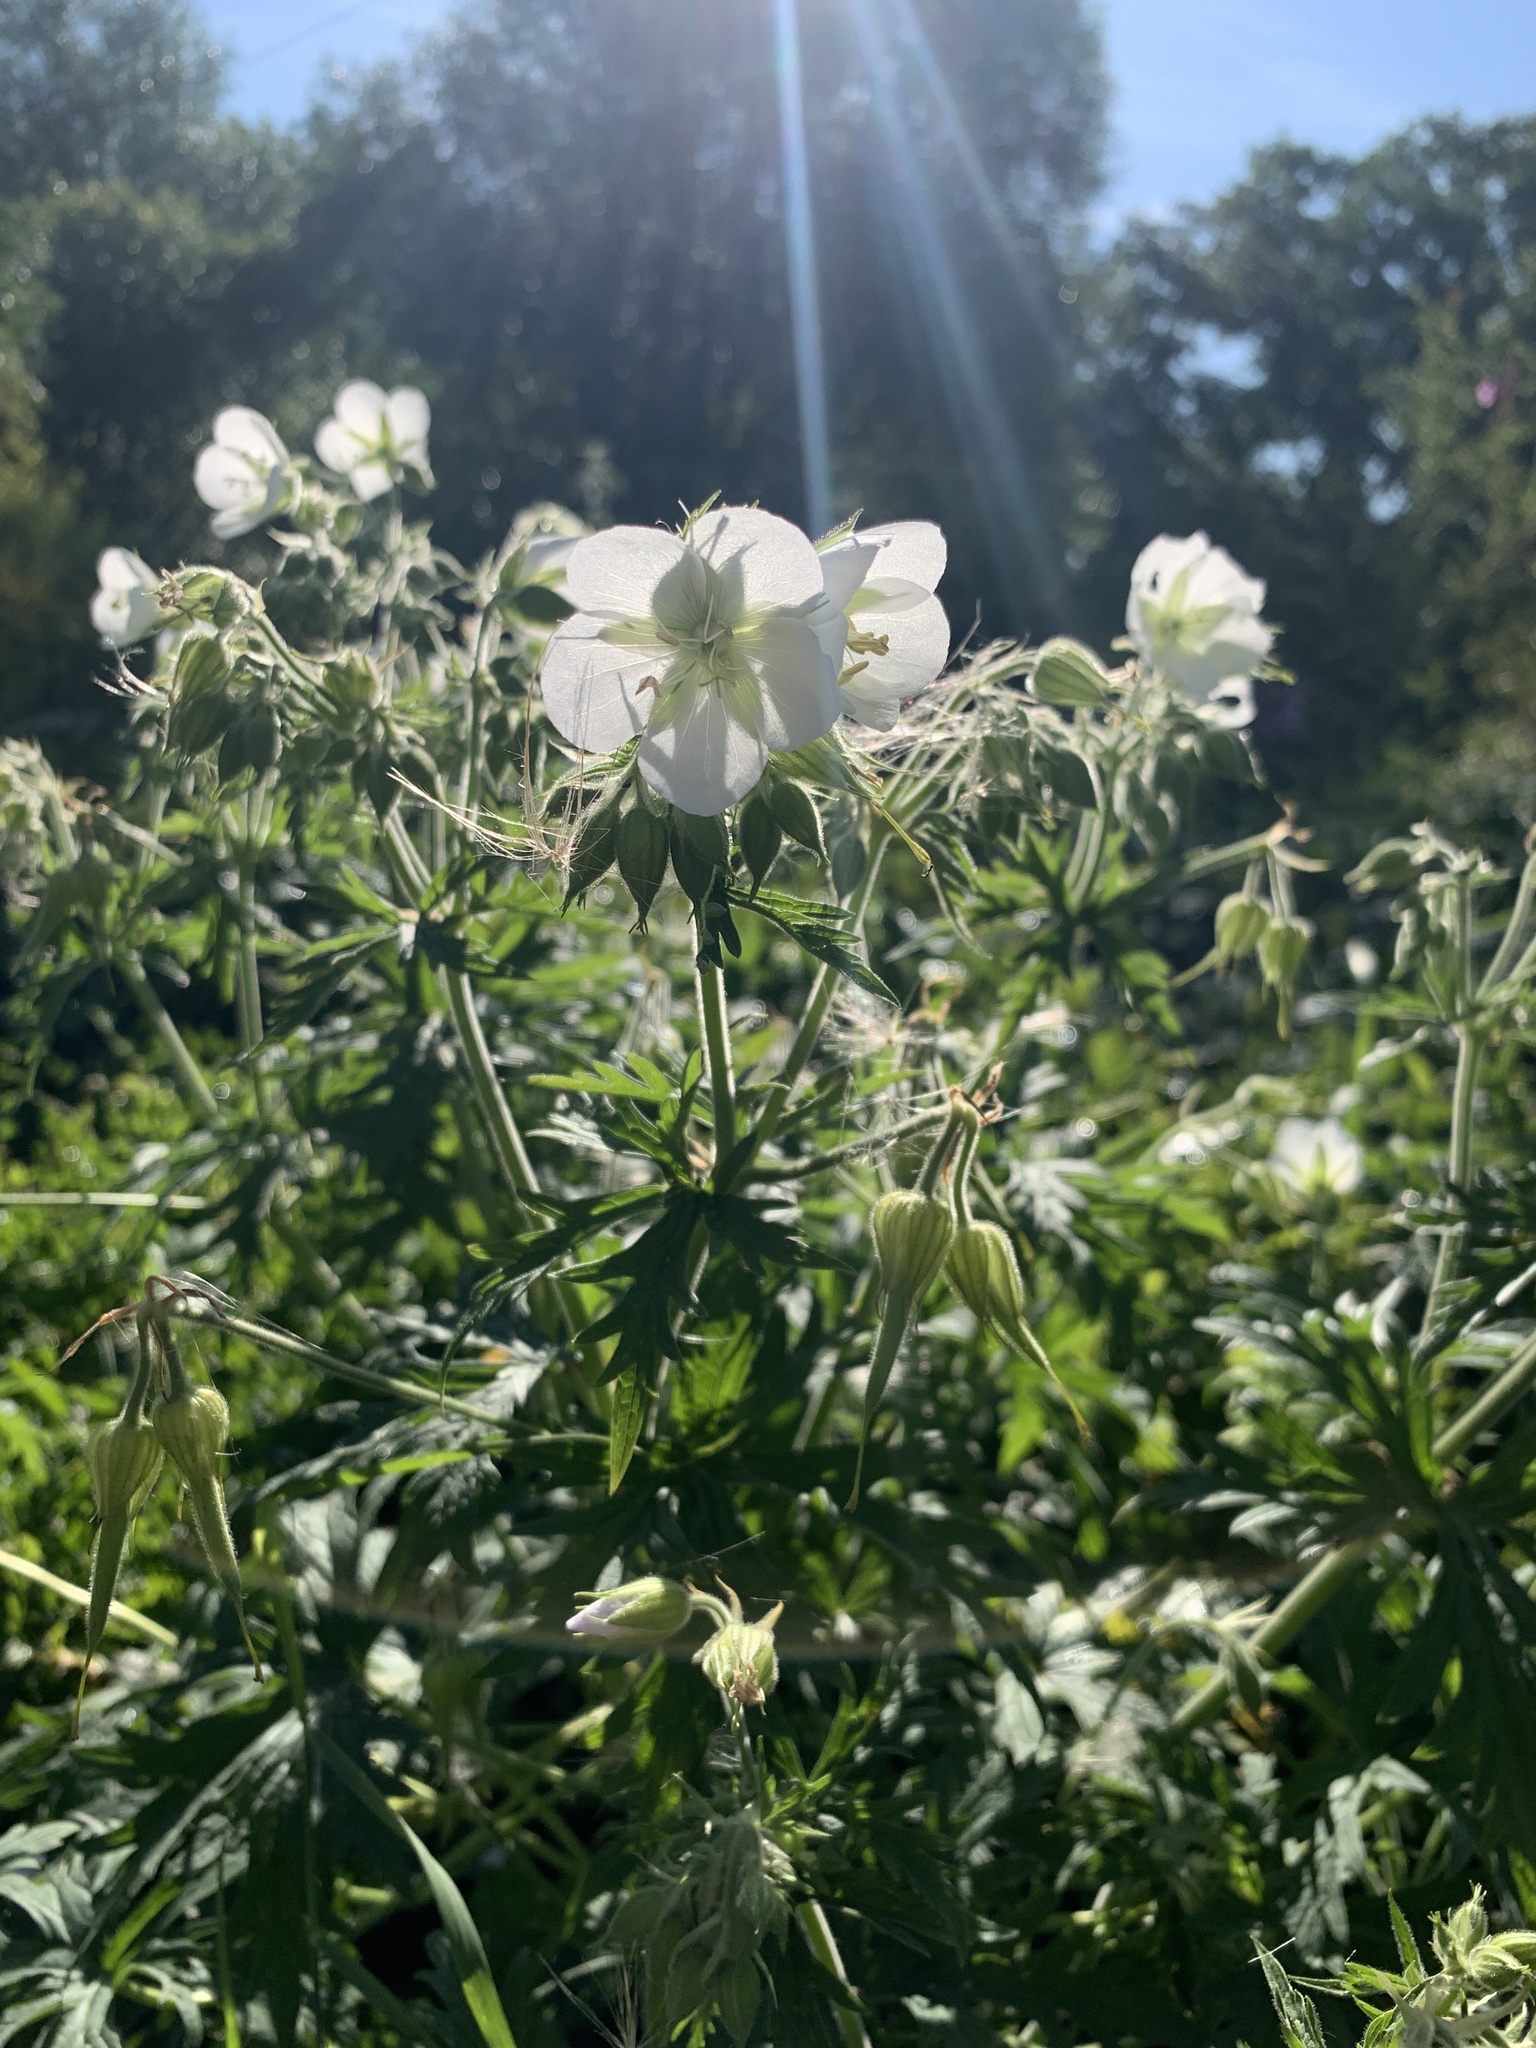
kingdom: Plantae
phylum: Tracheophyta
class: Magnoliopsida
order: Geraniales
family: Geraniaceae
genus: Geranium
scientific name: Geranium pratense
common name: Meadow crane's-bill
